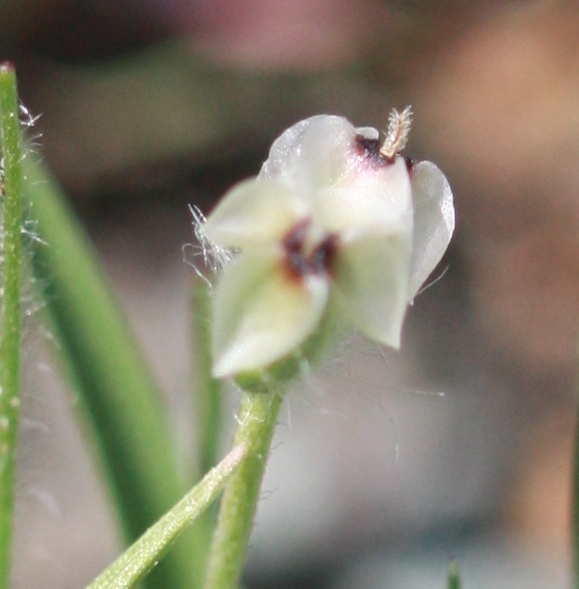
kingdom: Plantae
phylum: Tracheophyta
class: Magnoliopsida
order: Lamiales
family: Plantaginaceae
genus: Plantago
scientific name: Plantago erecta
